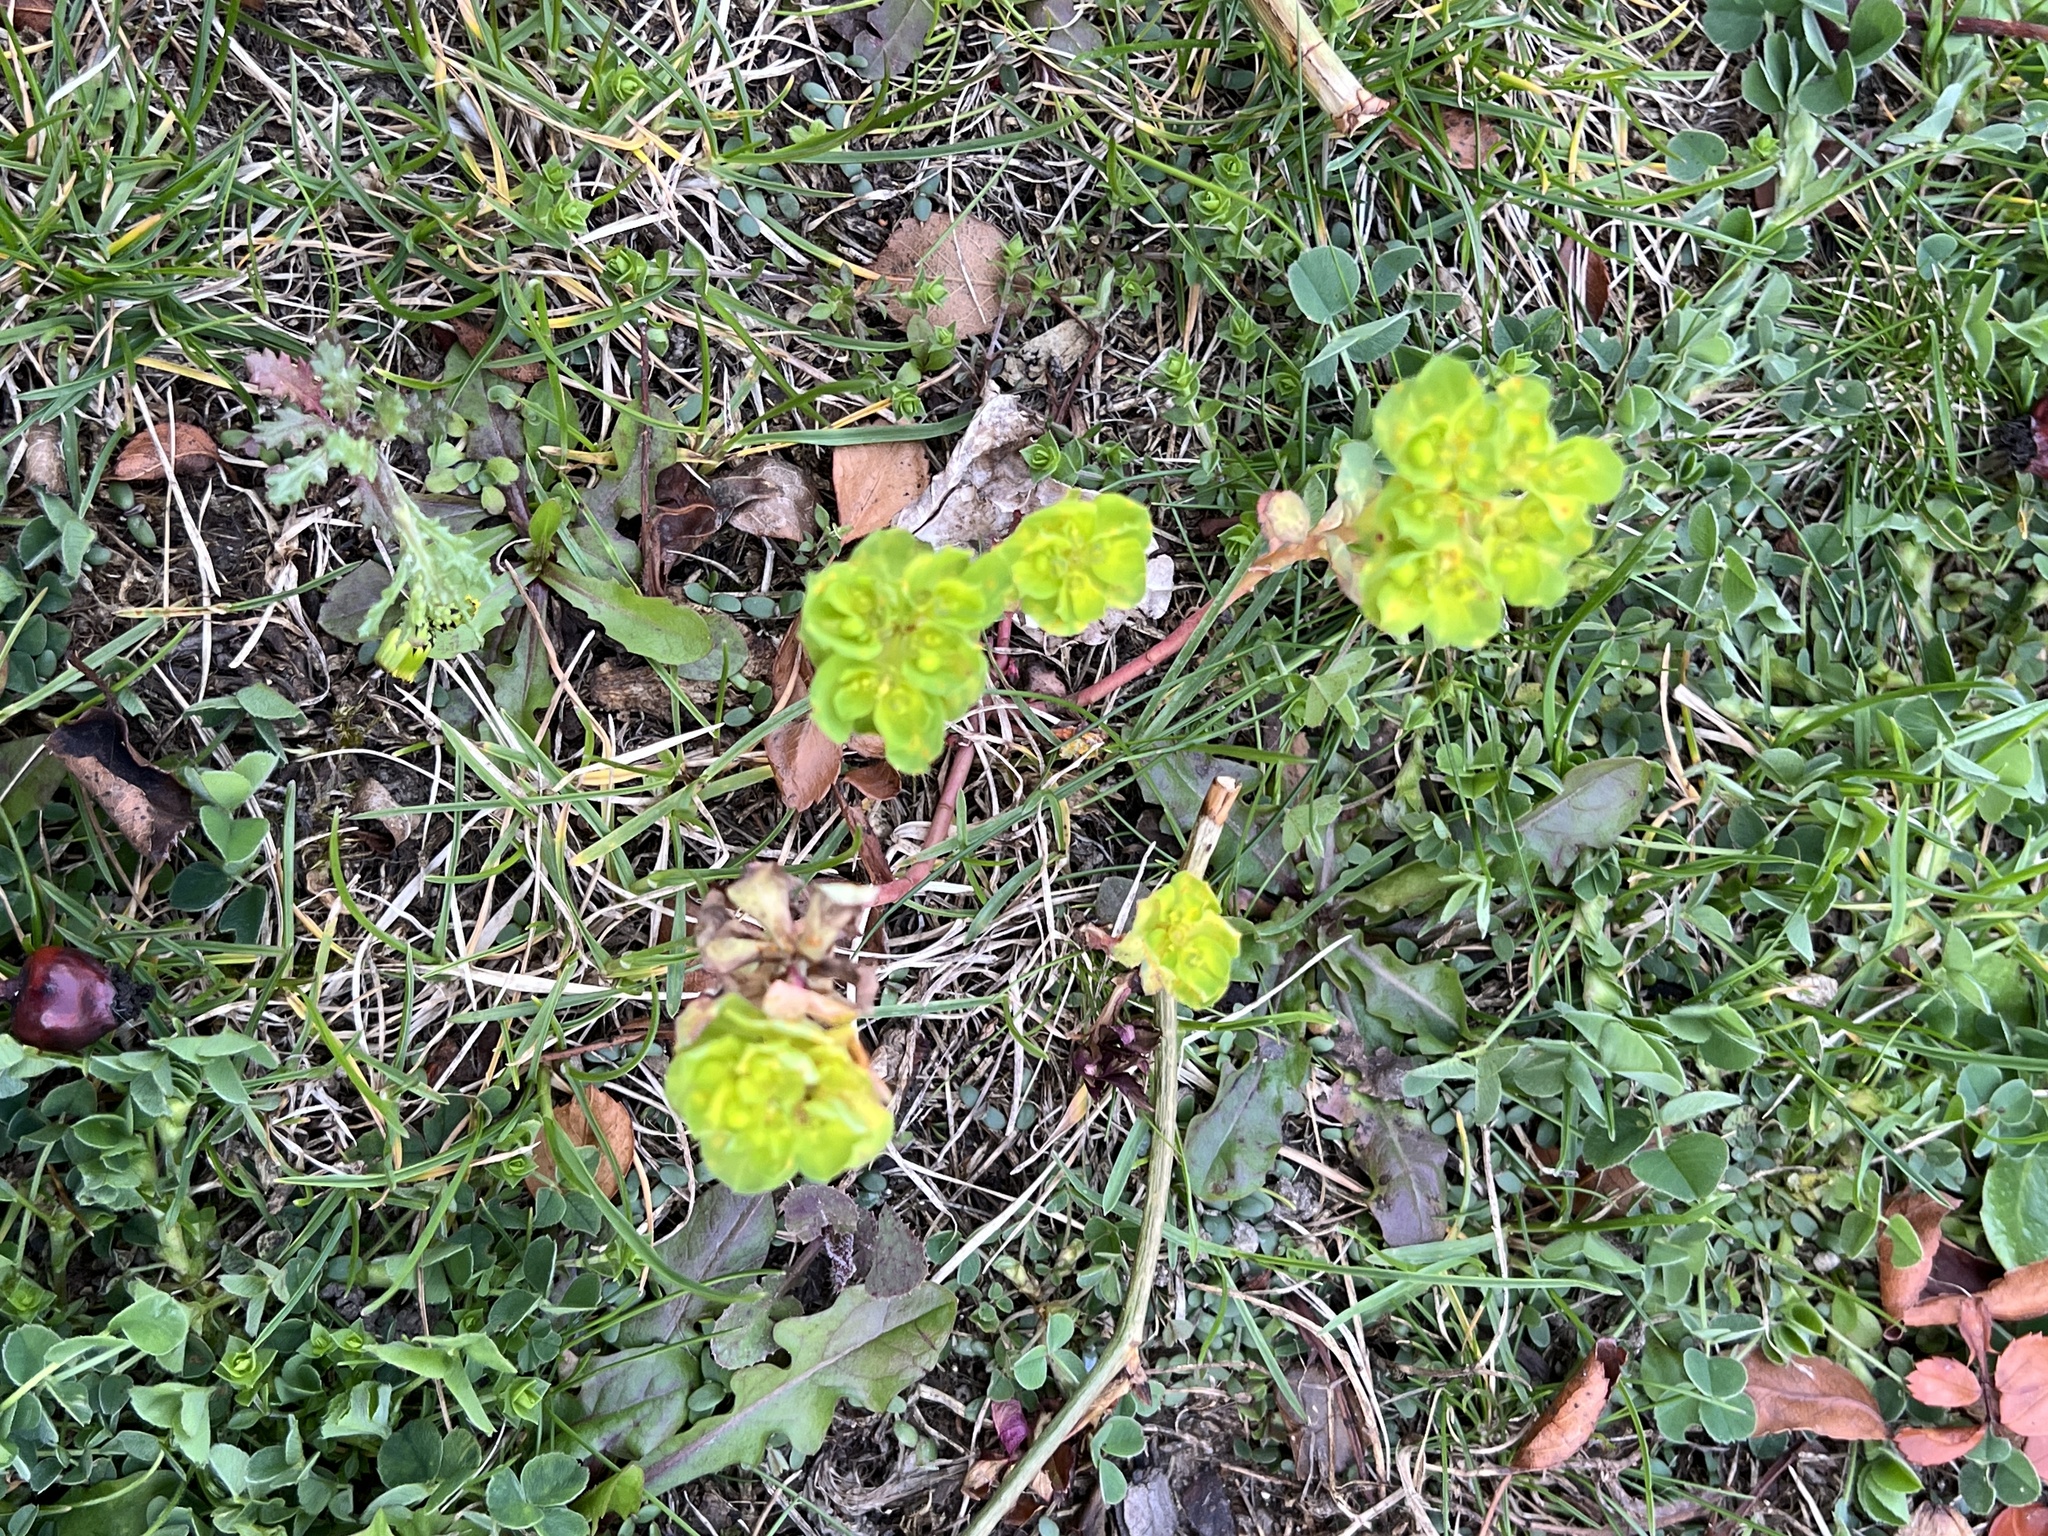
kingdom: Plantae
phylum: Tracheophyta
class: Magnoliopsida
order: Malpighiales
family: Euphorbiaceae
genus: Euphorbia
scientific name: Euphorbia helioscopia
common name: Sun spurge
